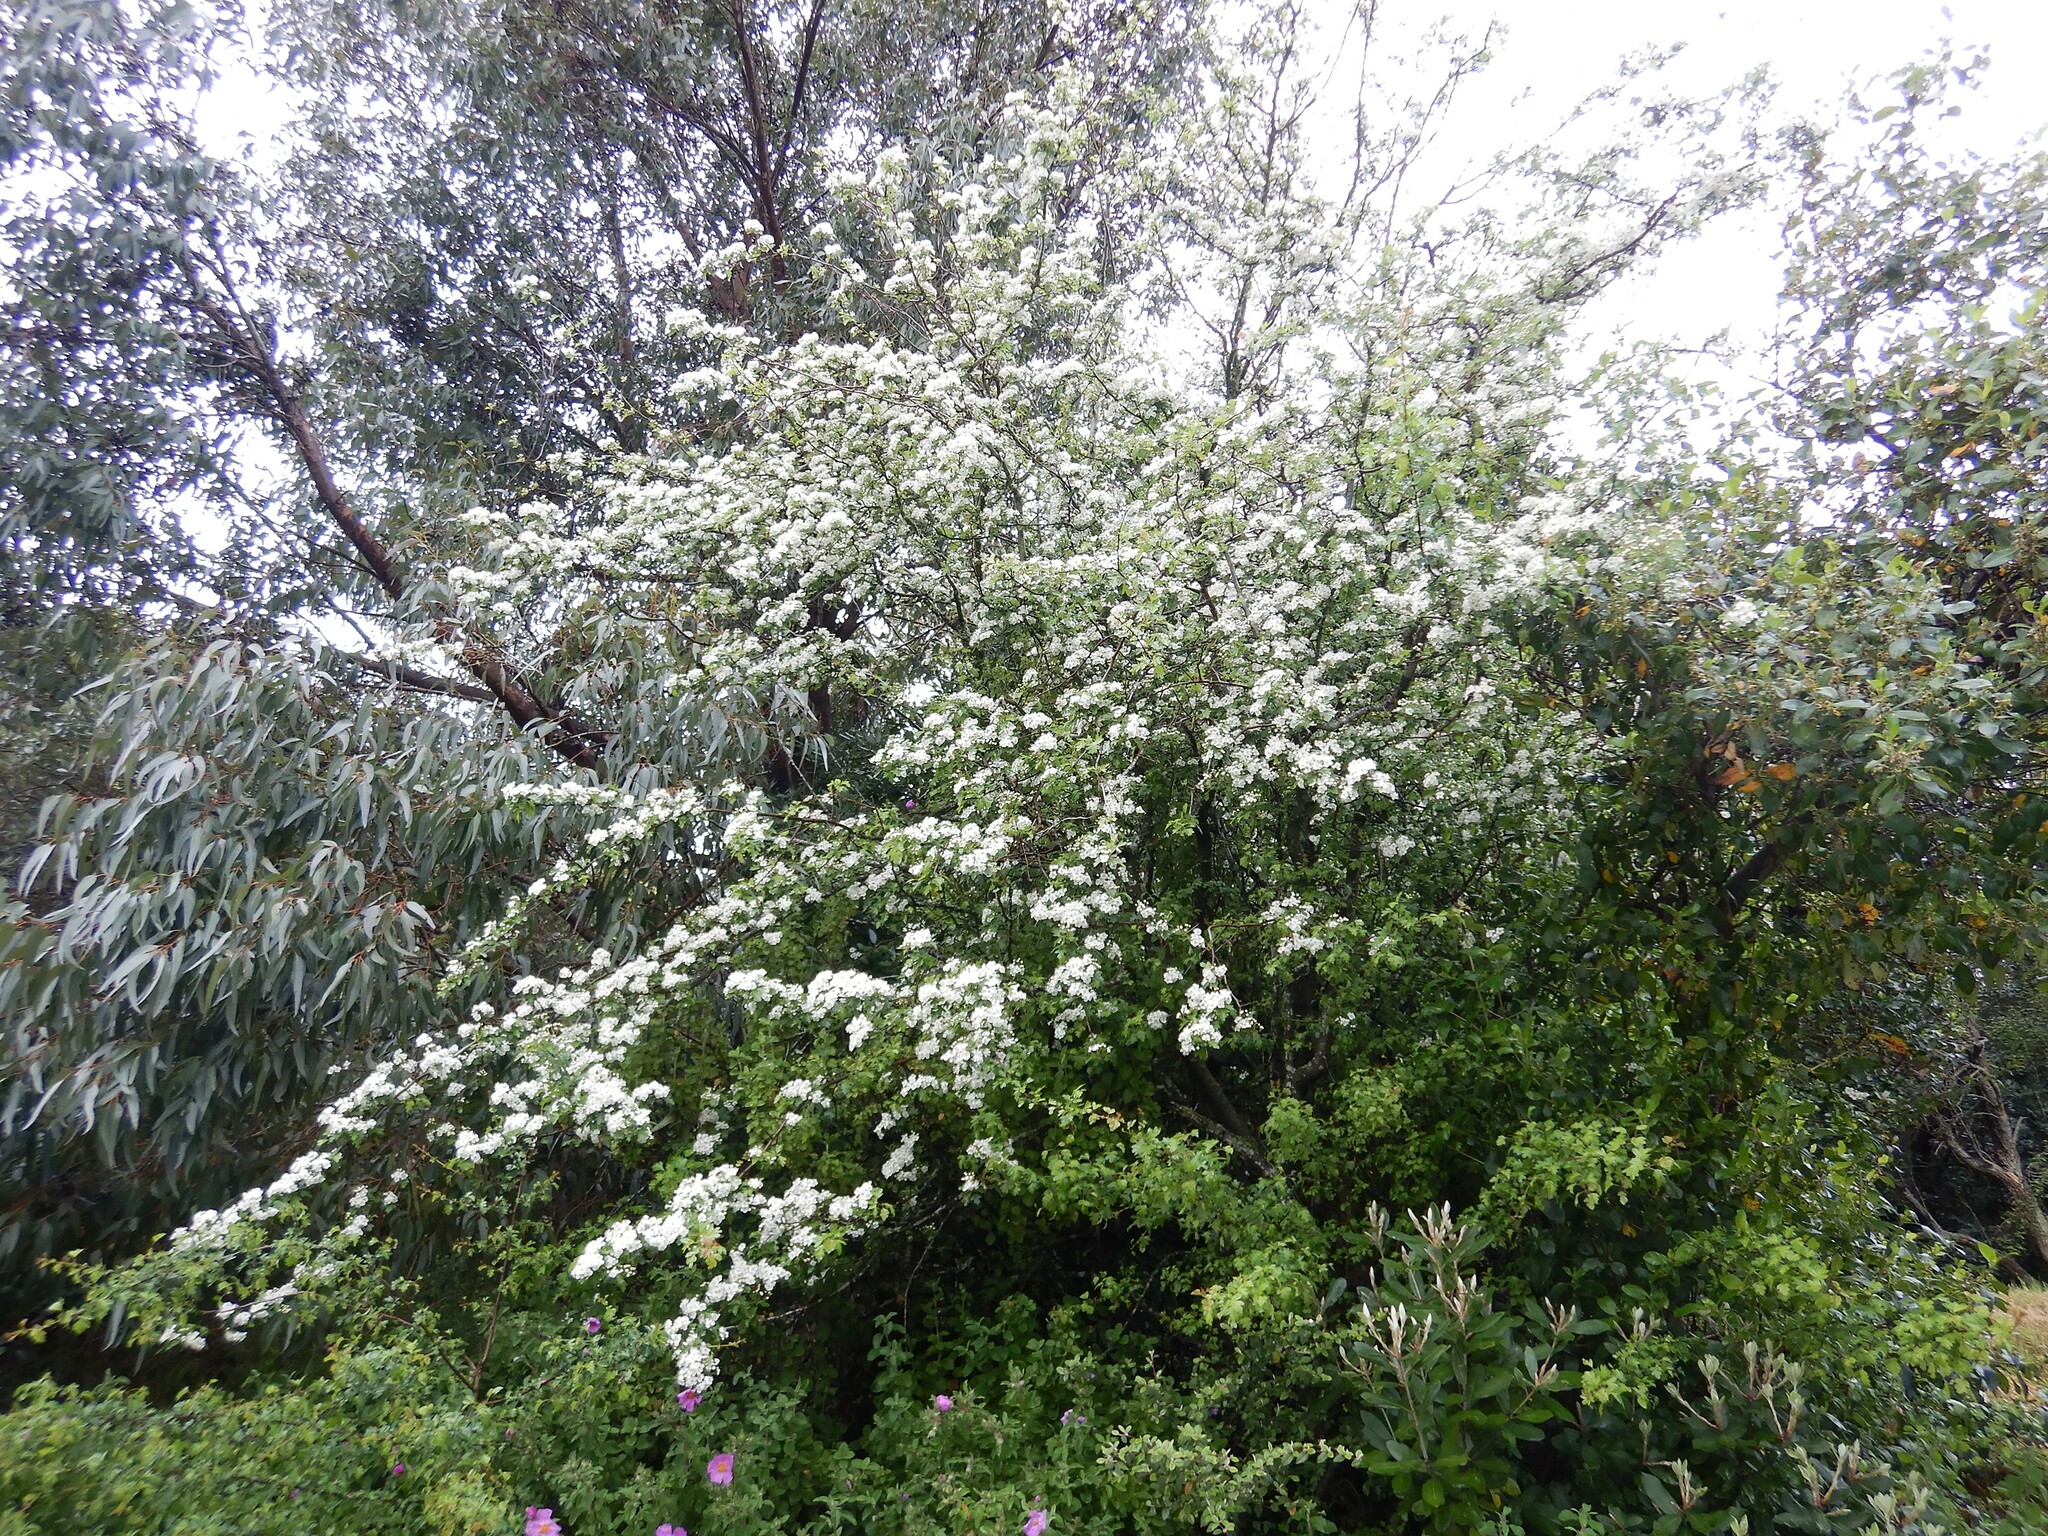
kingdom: Plantae
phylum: Tracheophyta
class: Magnoliopsida
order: Rosales
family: Rosaceae
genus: Crataegus
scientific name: Crataegus monogyna
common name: Hawthorn
